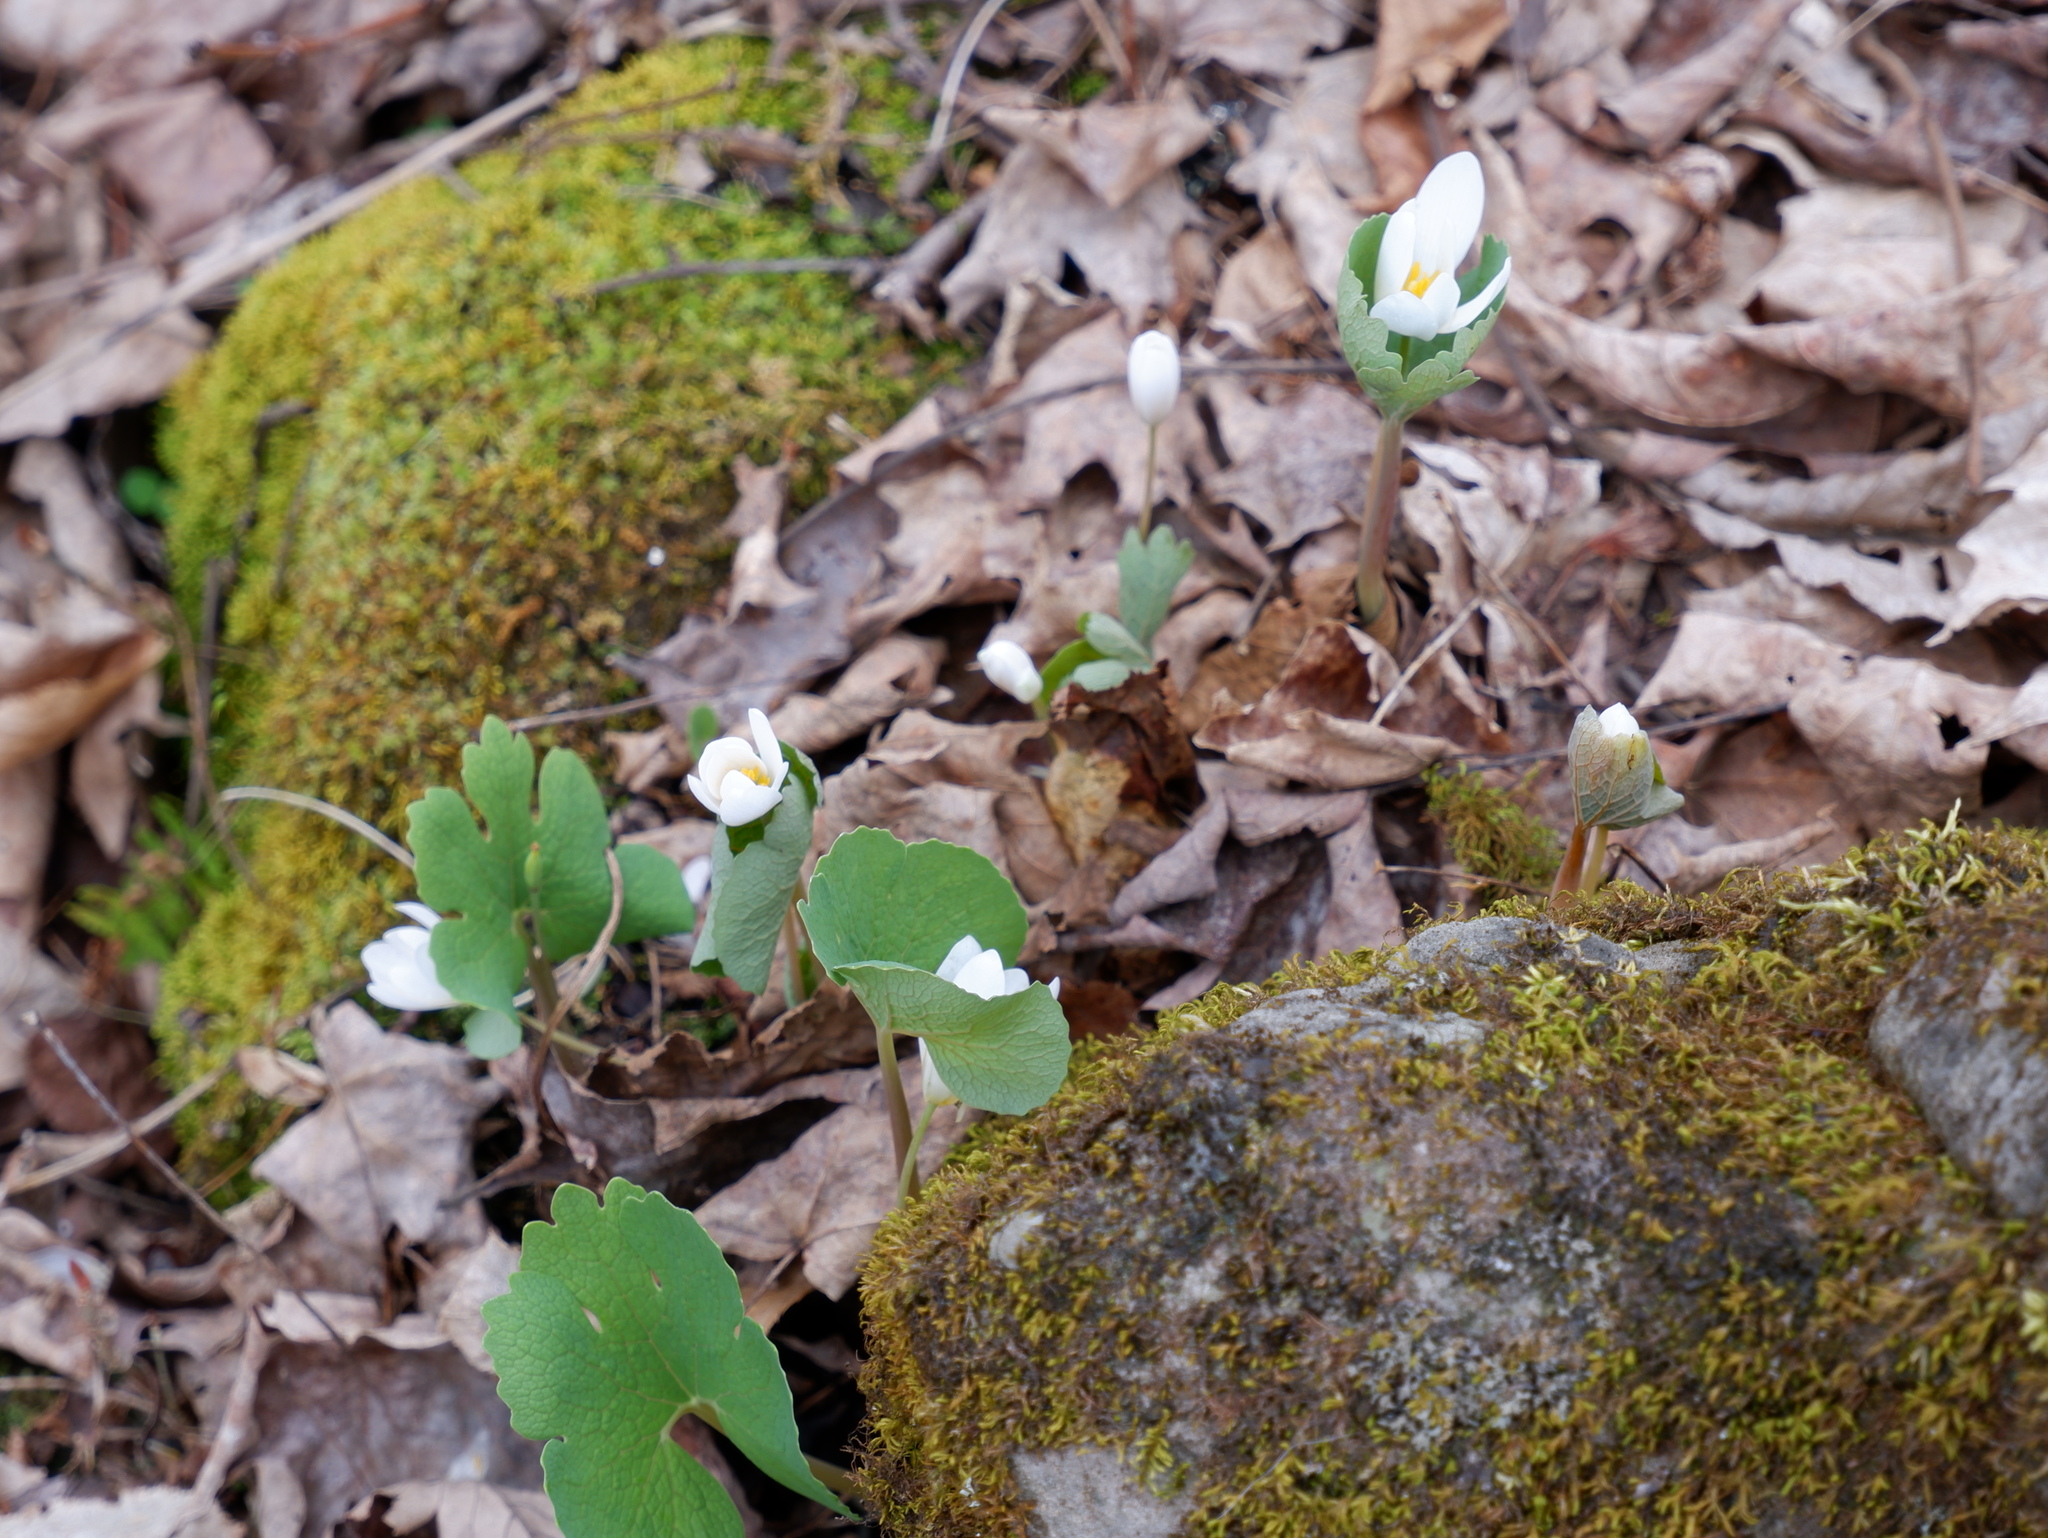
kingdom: Plantae
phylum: Tracheophyta
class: Magnoliopsida
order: Ranunculales
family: Papaveraceae
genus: Sanguinaria
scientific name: Sanguinaria canadensis
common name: Bloodroot
